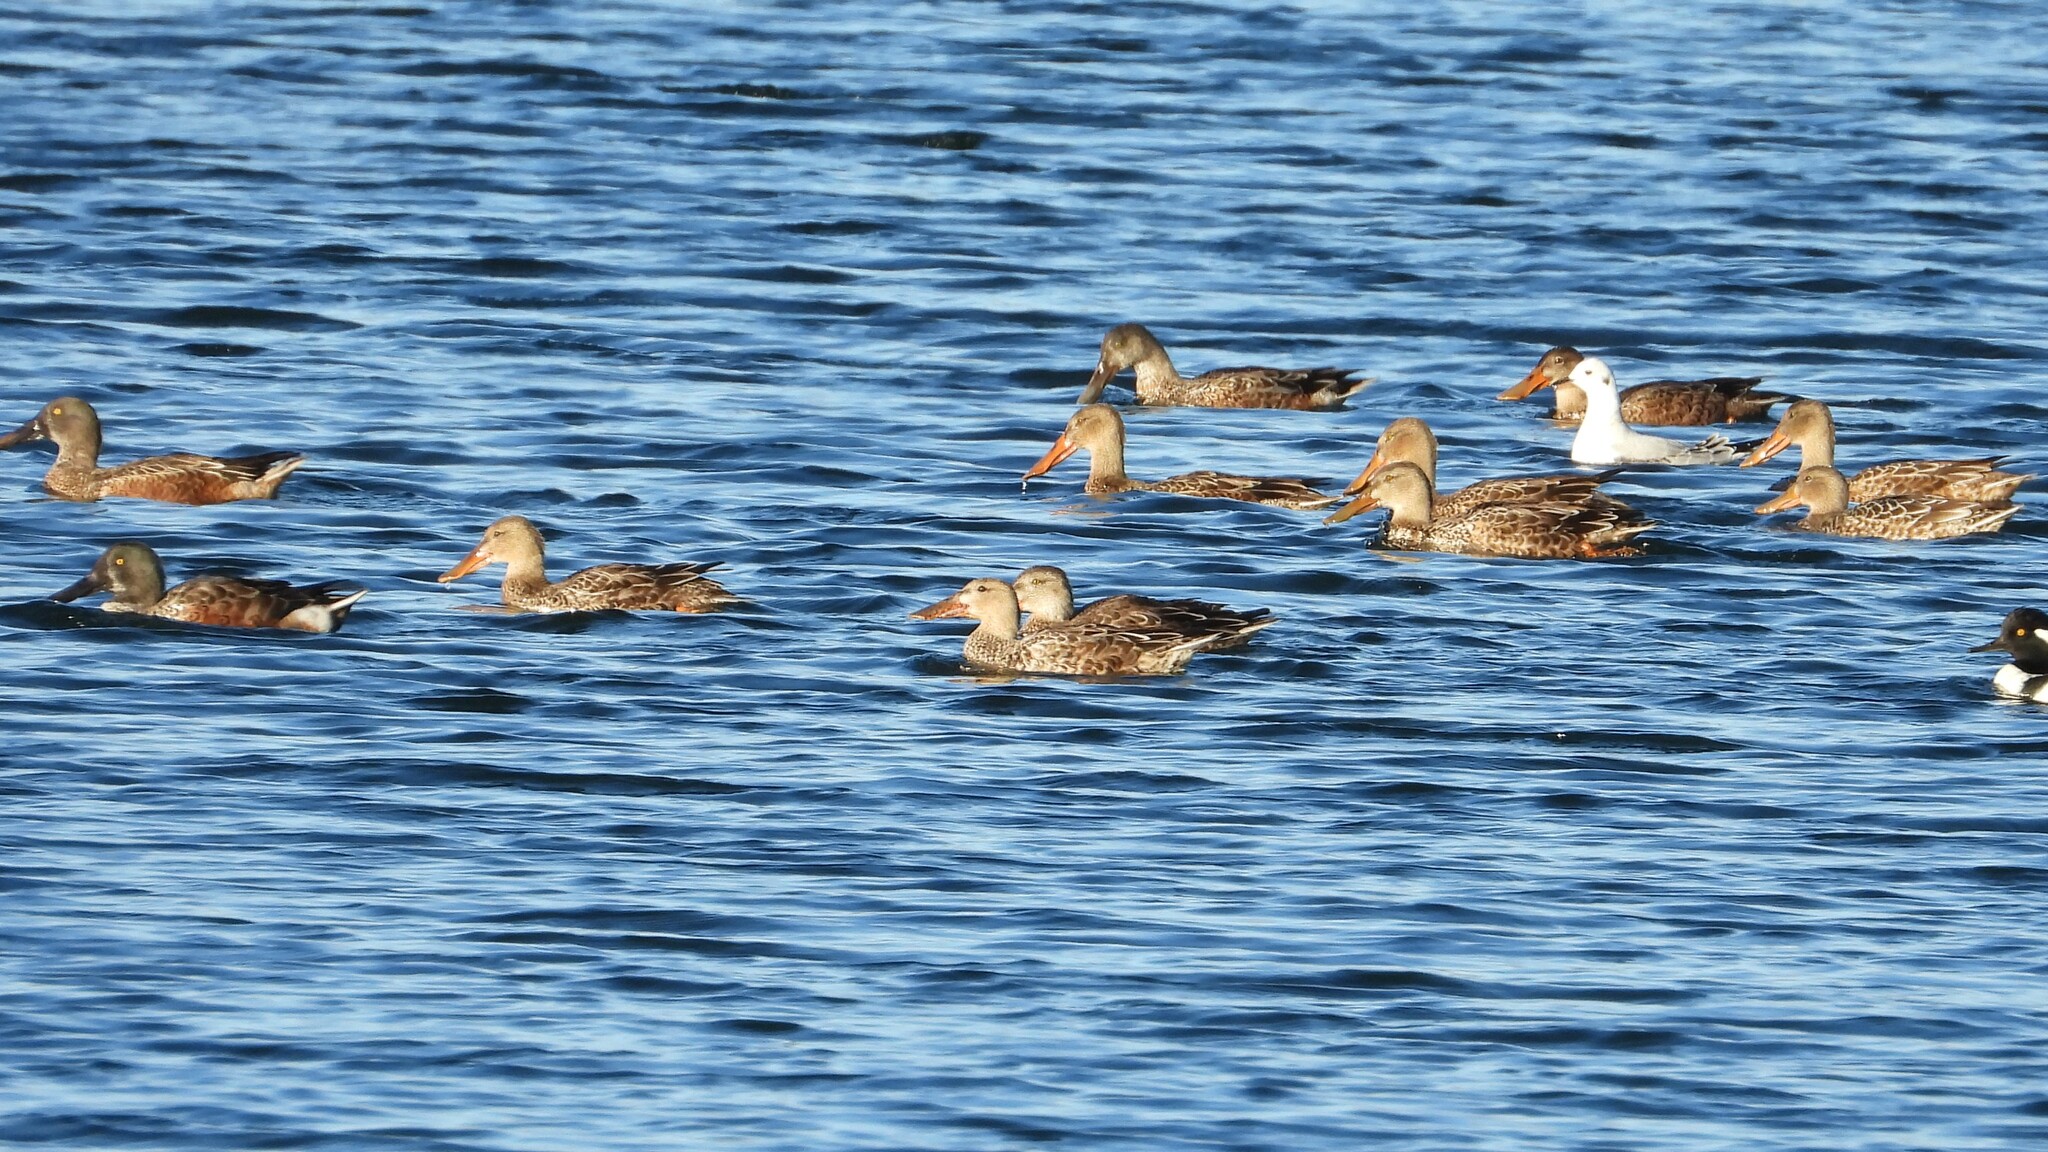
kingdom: Animalia
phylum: Chordata
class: Aves
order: Anseriformes
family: Anatidae
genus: Spatula
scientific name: Spatula clypeata
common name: Northern shoveler
